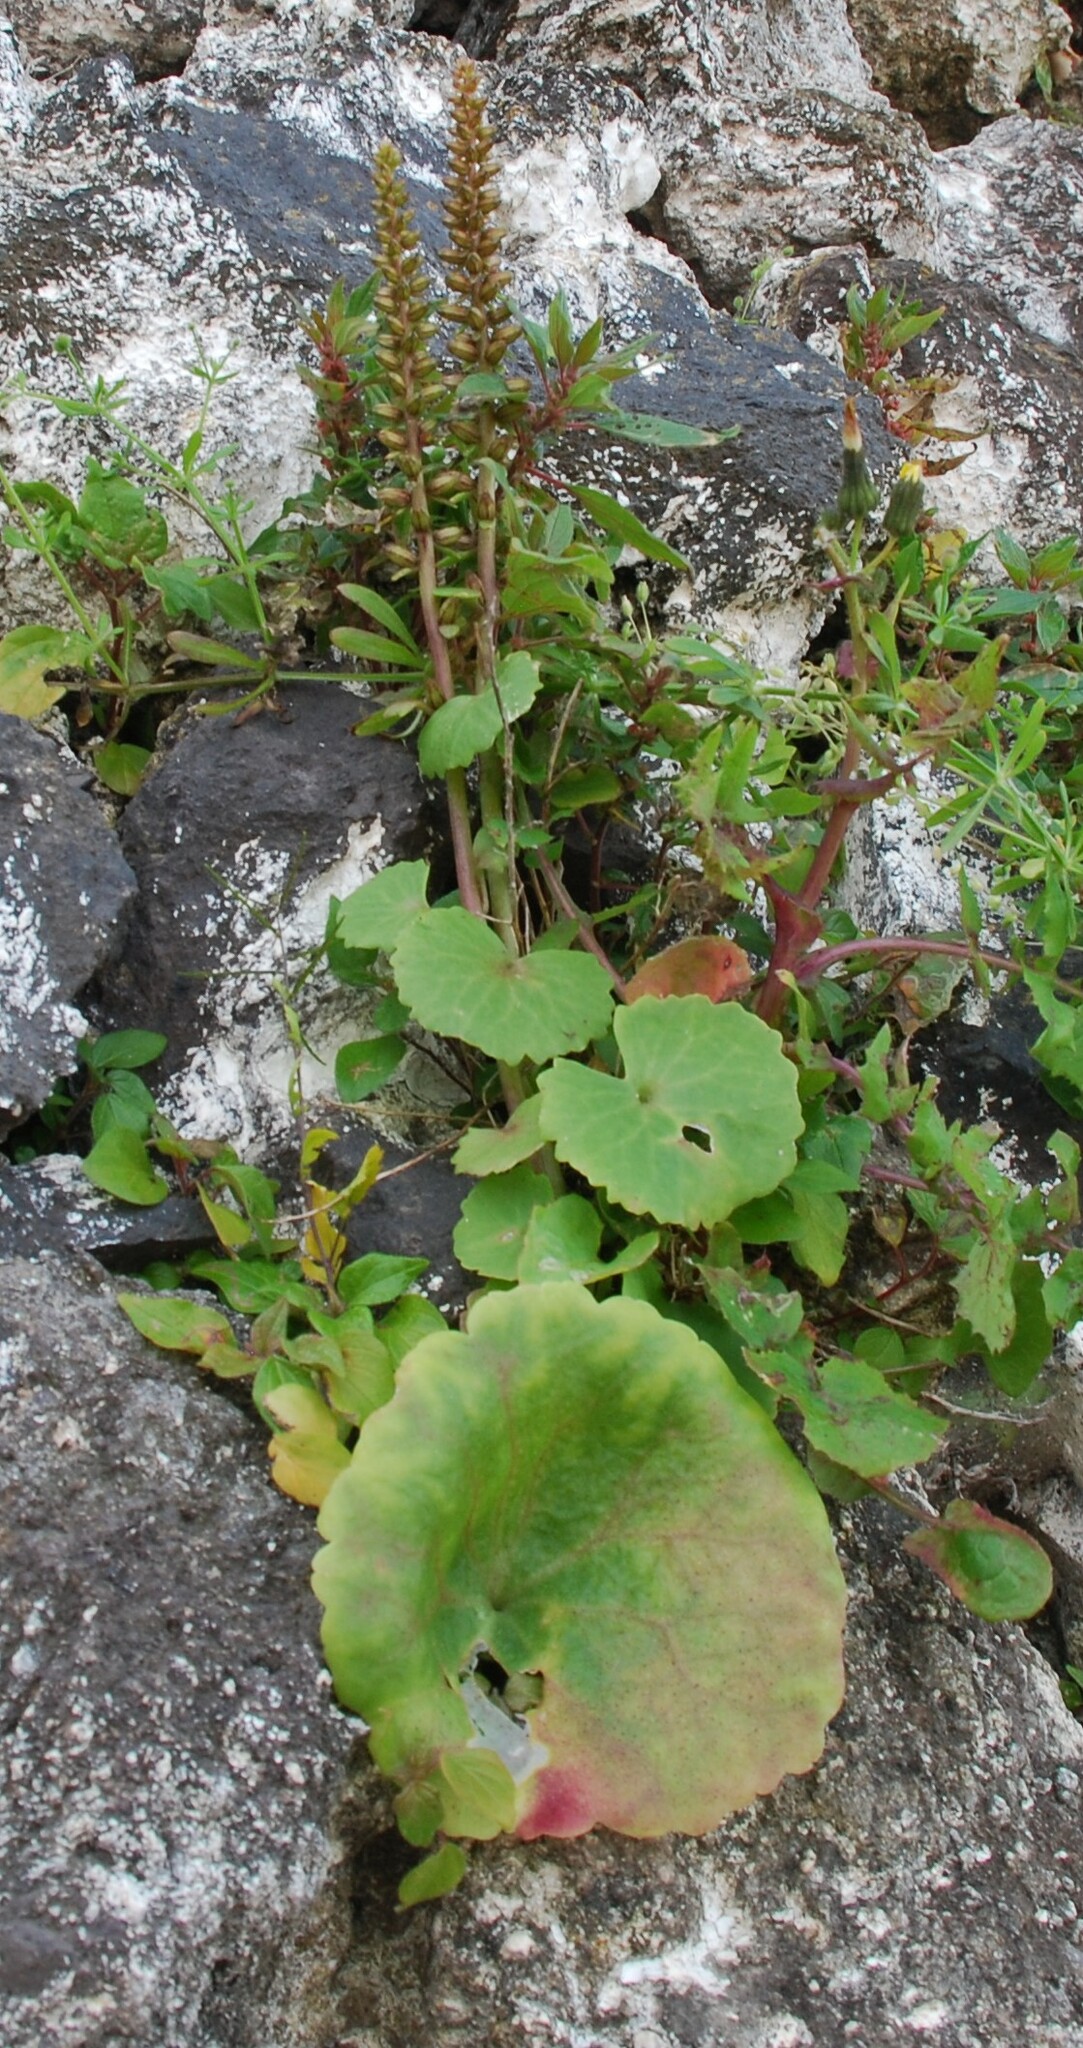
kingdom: Plantae
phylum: Tracheophyta
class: Magnoliopsida
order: Saxifragales
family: Crassulaceae
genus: Umbilicus
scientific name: Umbilicus horizontalis
